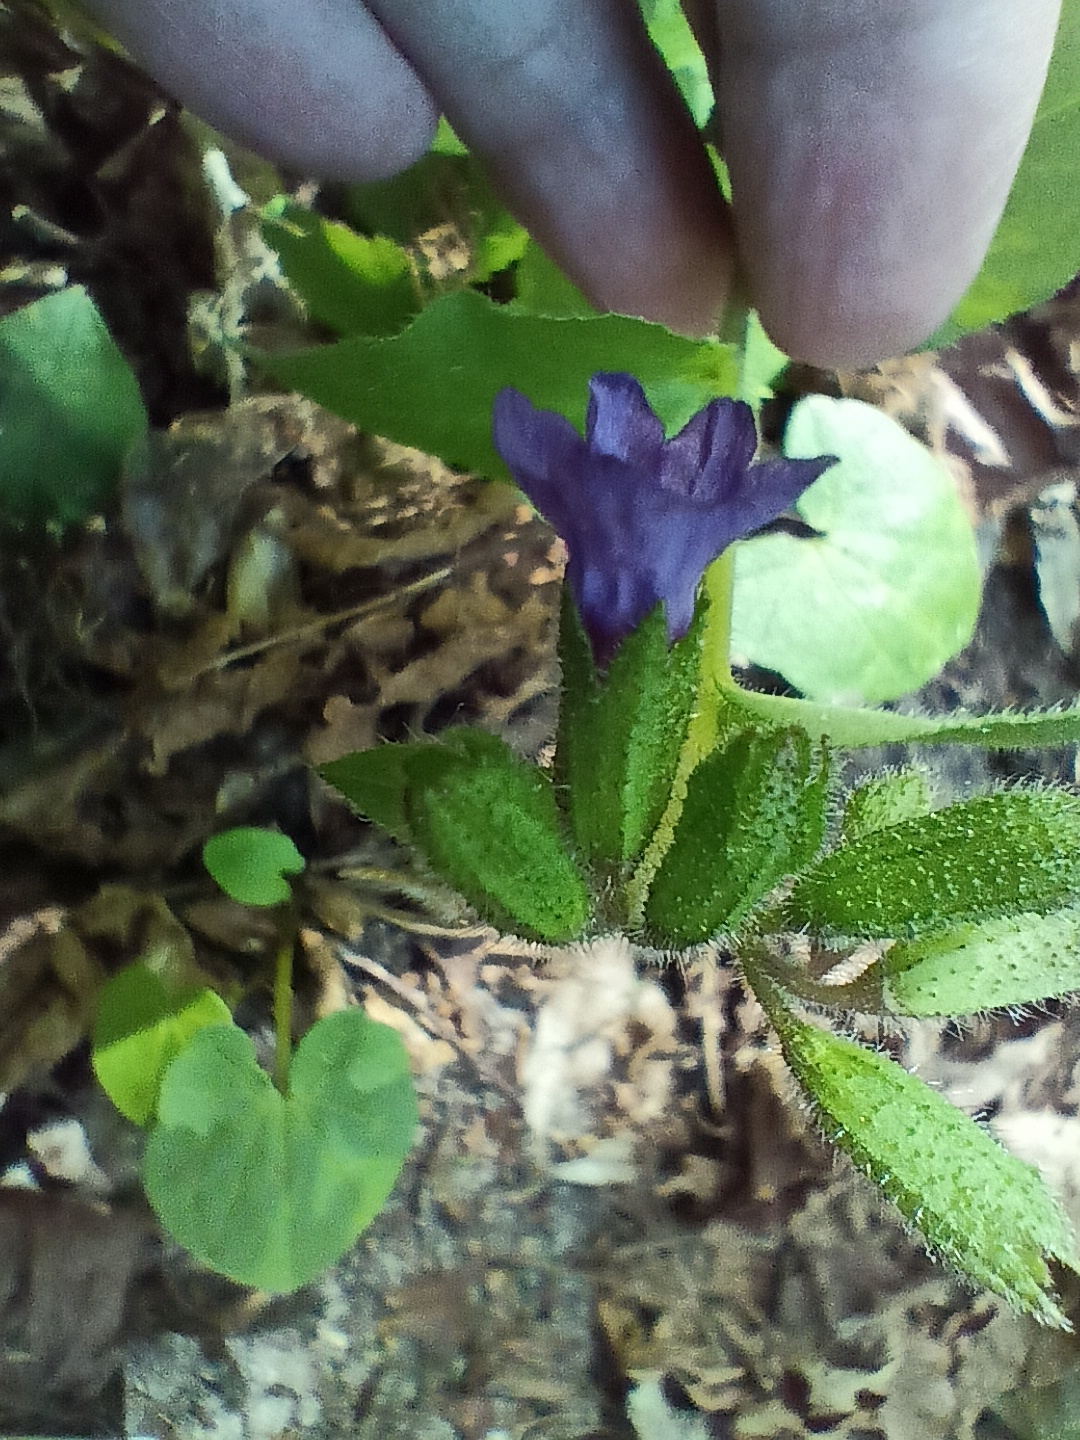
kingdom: Plantae
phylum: Tracheophyta
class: Magnoliopsida
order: Boraginales
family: Boraginaceae
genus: Pulmonaria
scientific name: Pulmonaria obscura
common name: Suffolk lungwort
